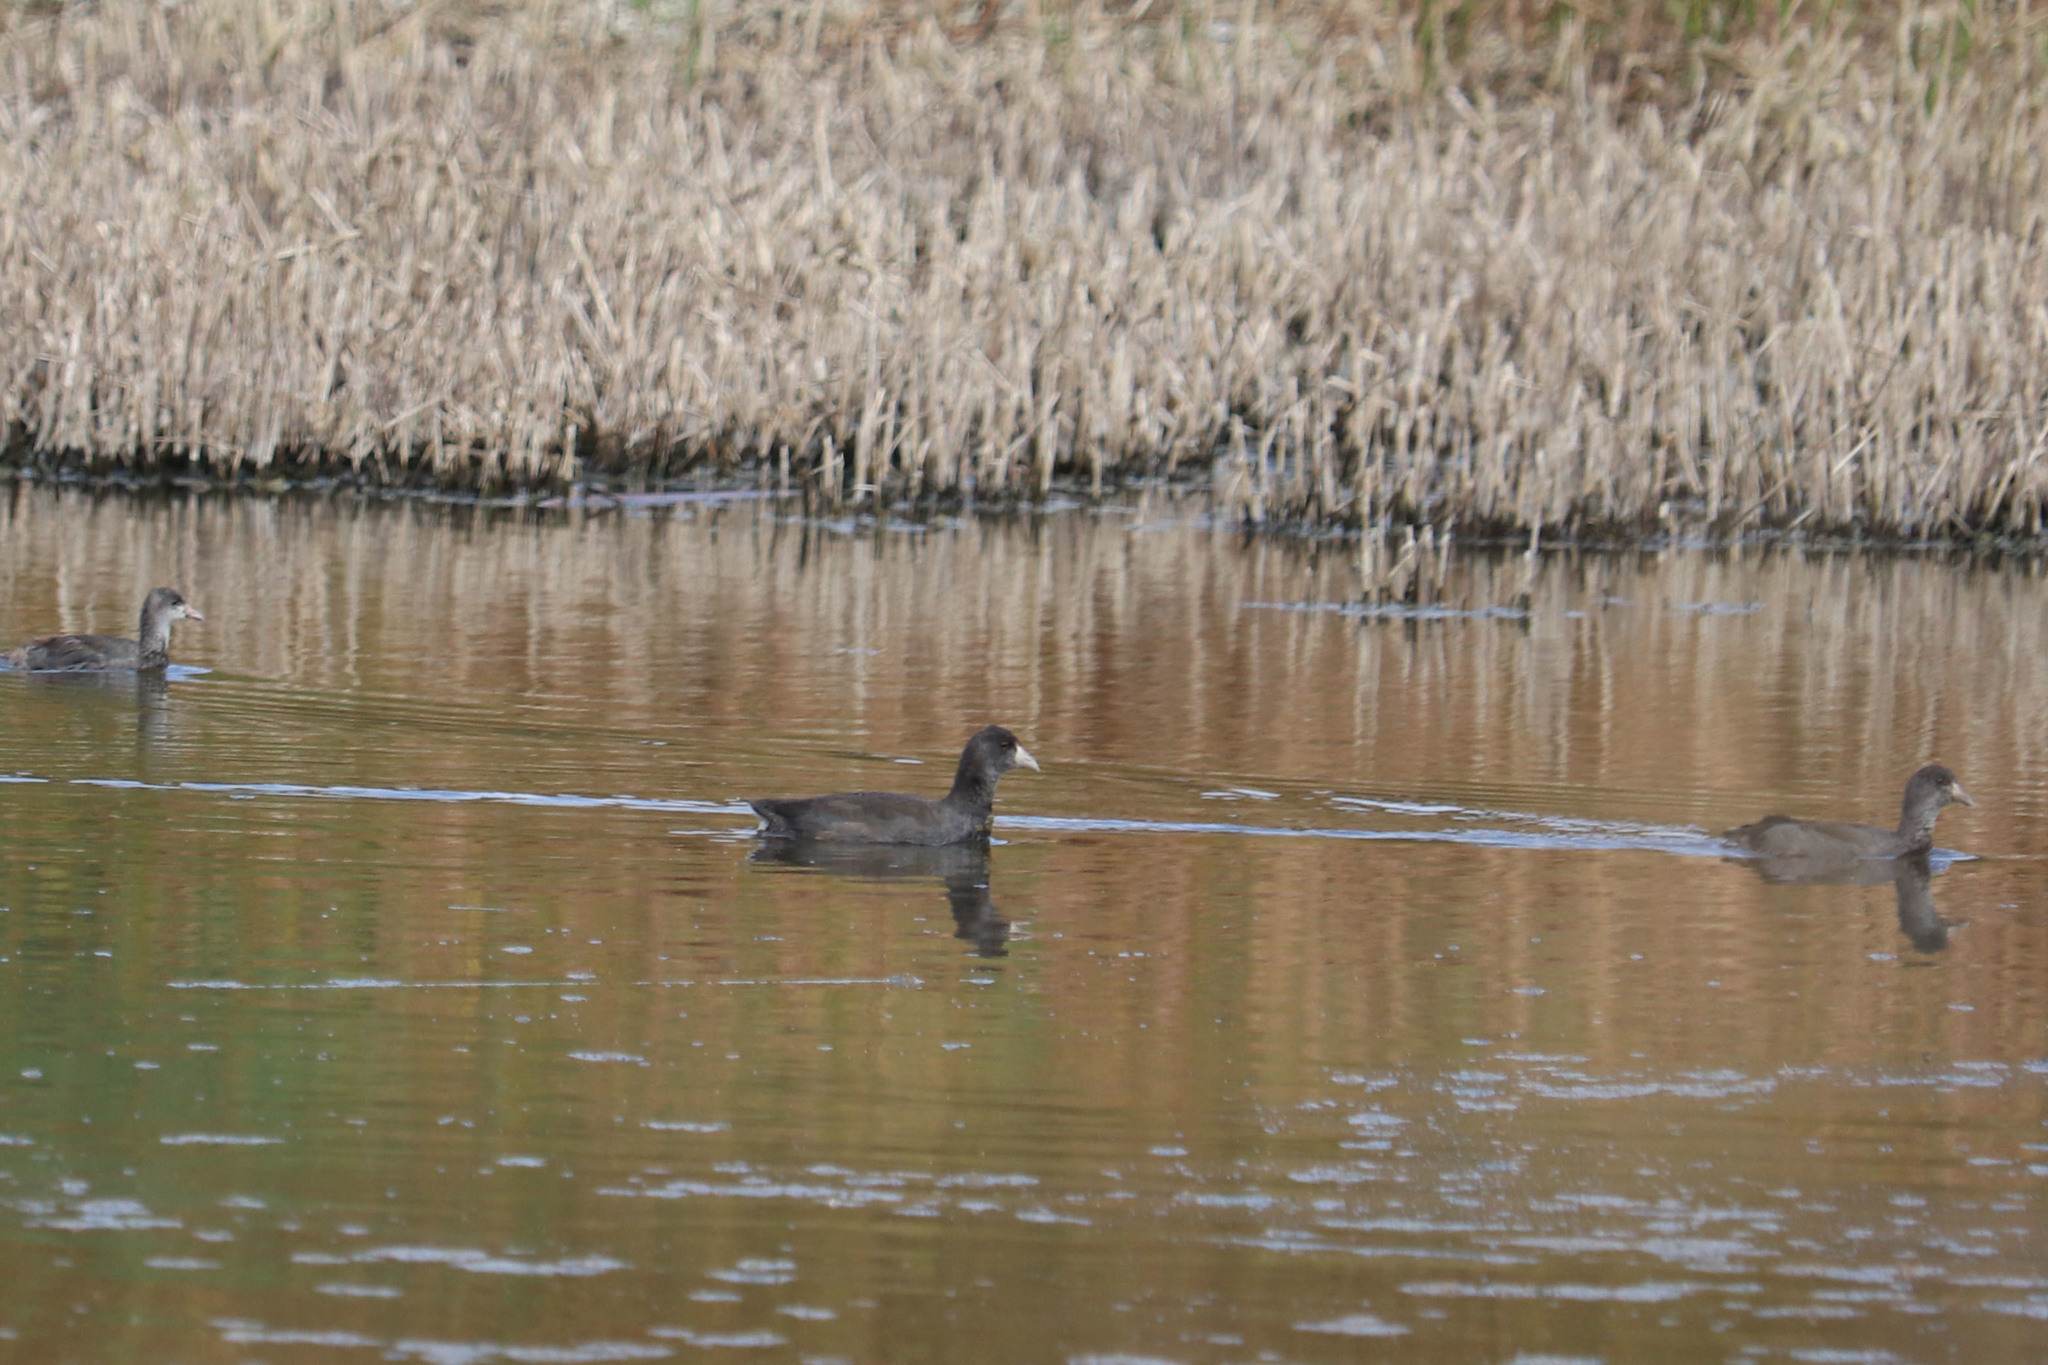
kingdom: Animalia
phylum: Chordata
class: Aves
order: Gruiformes
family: Rallidae
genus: Fulica
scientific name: Fulica americana
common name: American coot
